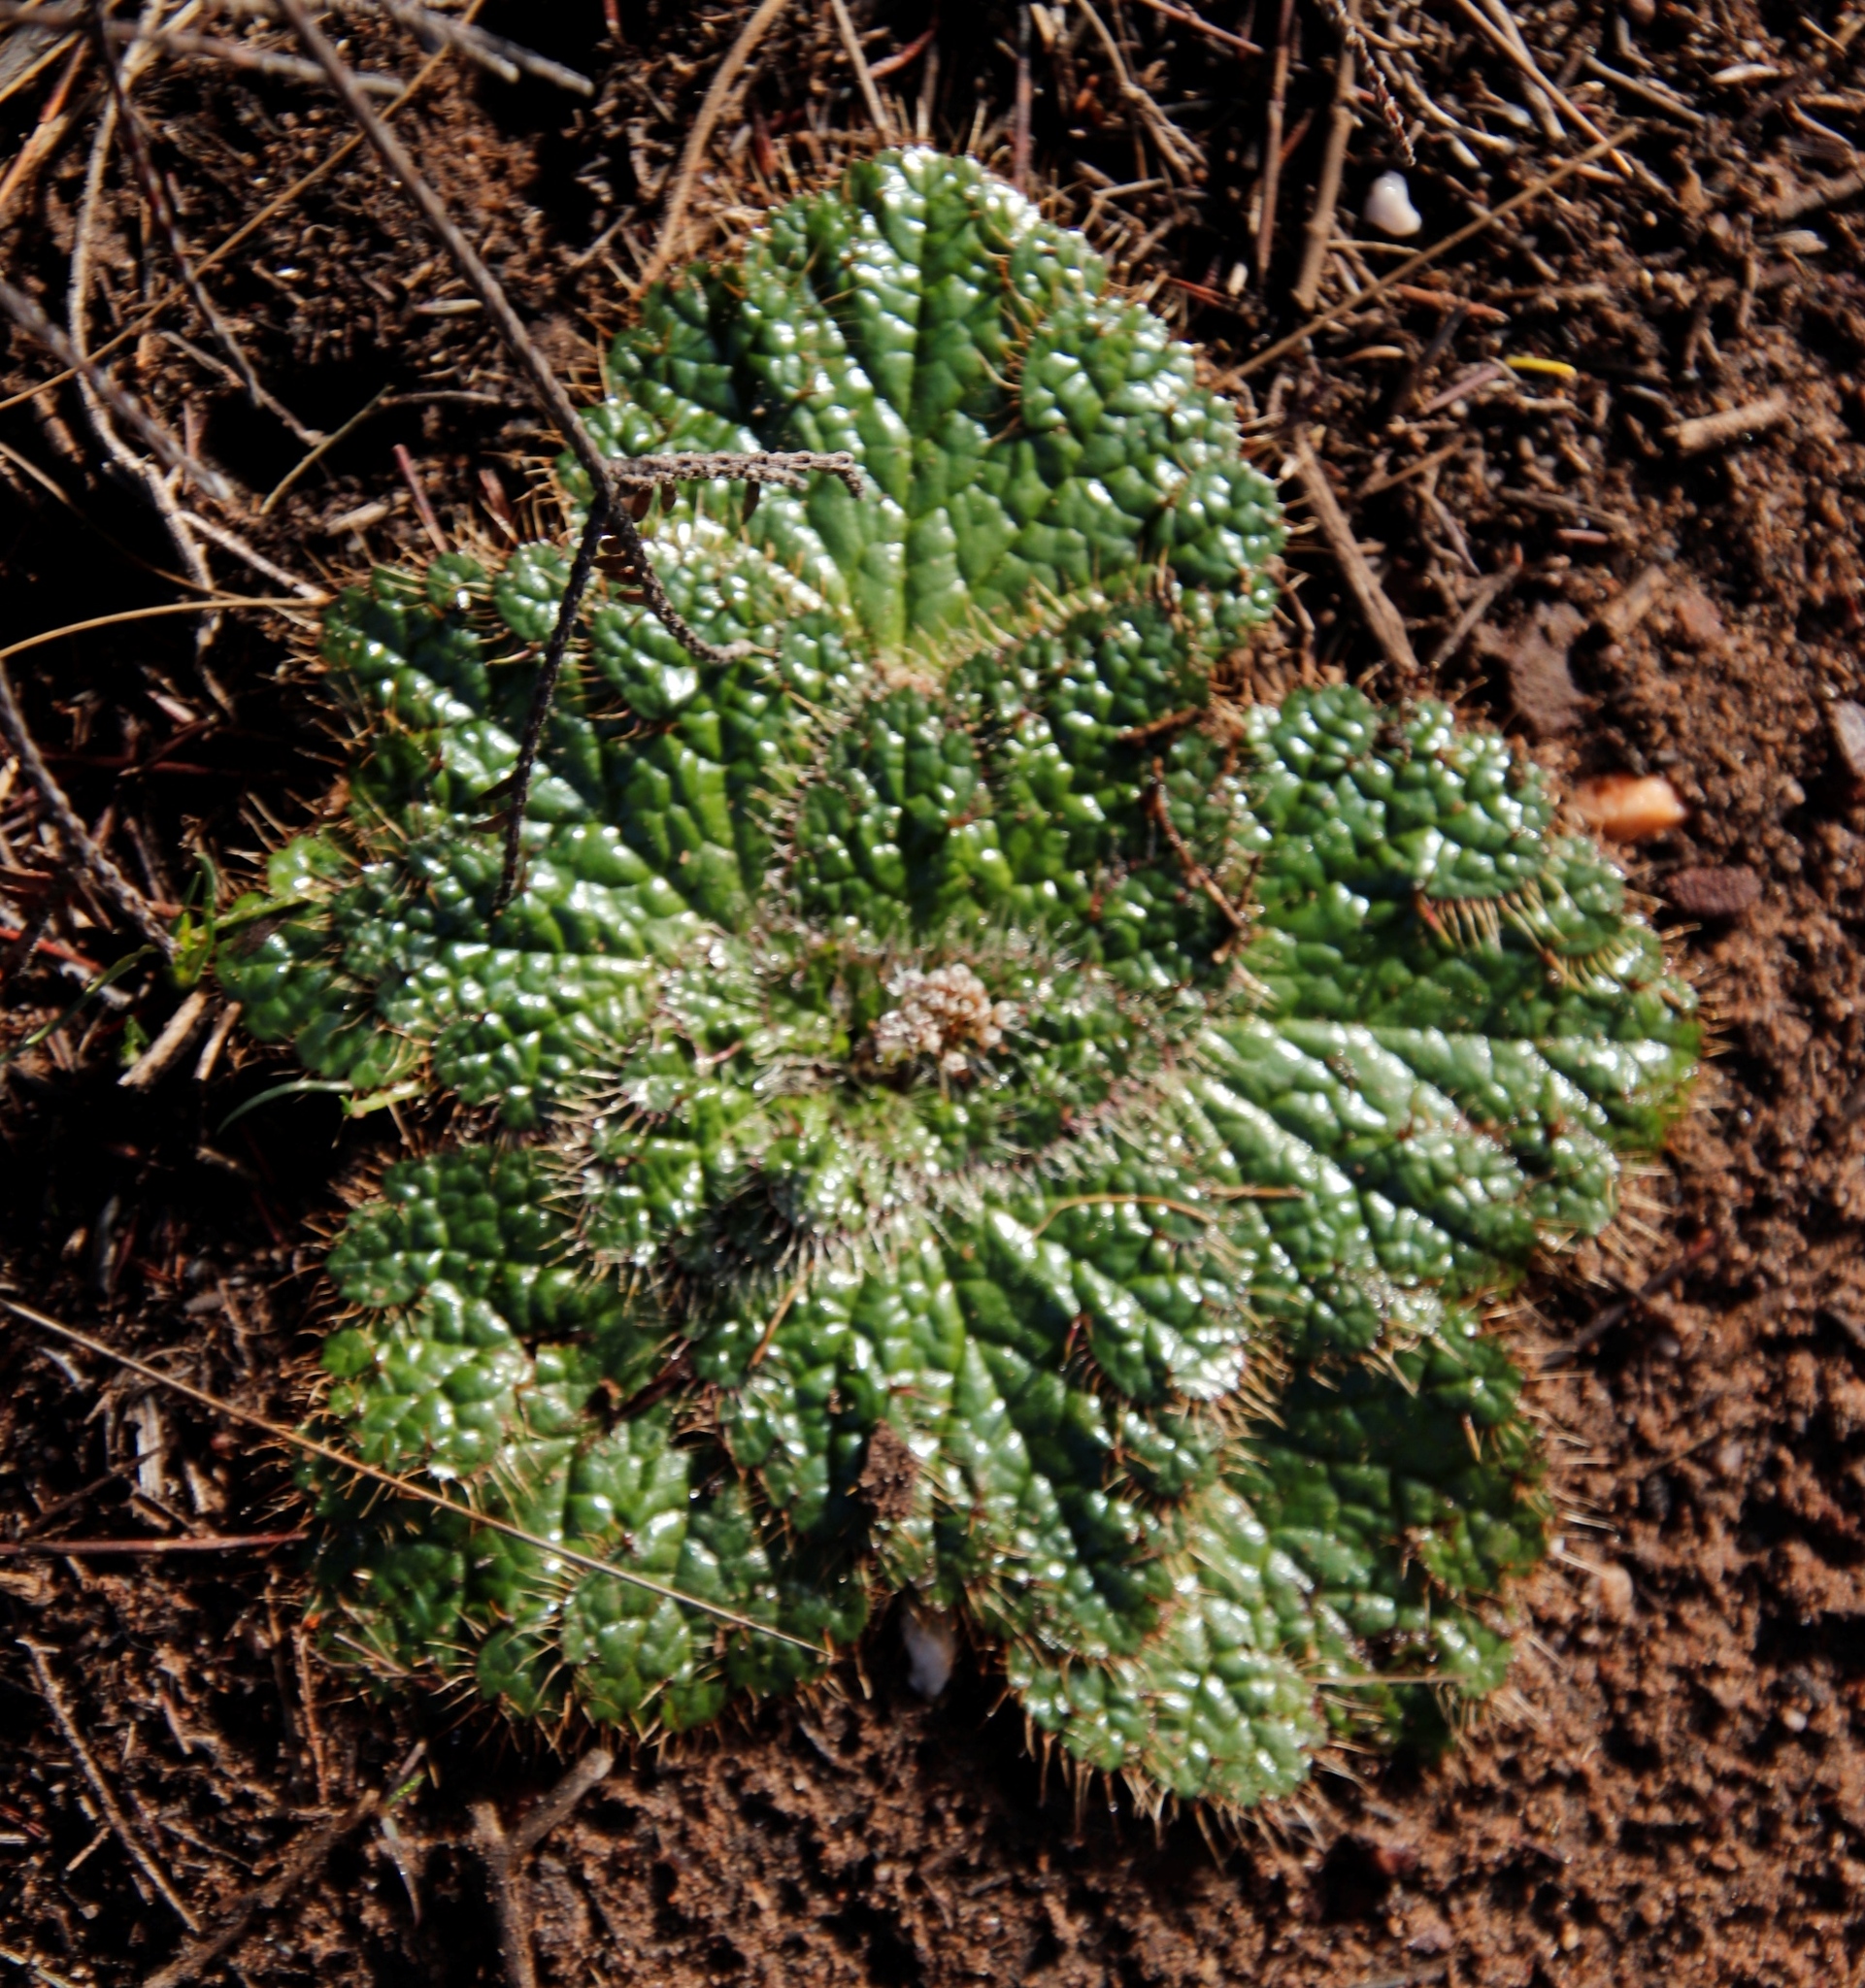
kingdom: Plantae
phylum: Tracheophyta
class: Magnoliopsida
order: Apiales
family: Apiaceae
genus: Arctopus
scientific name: Arctopus echinatus
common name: Platdoring
